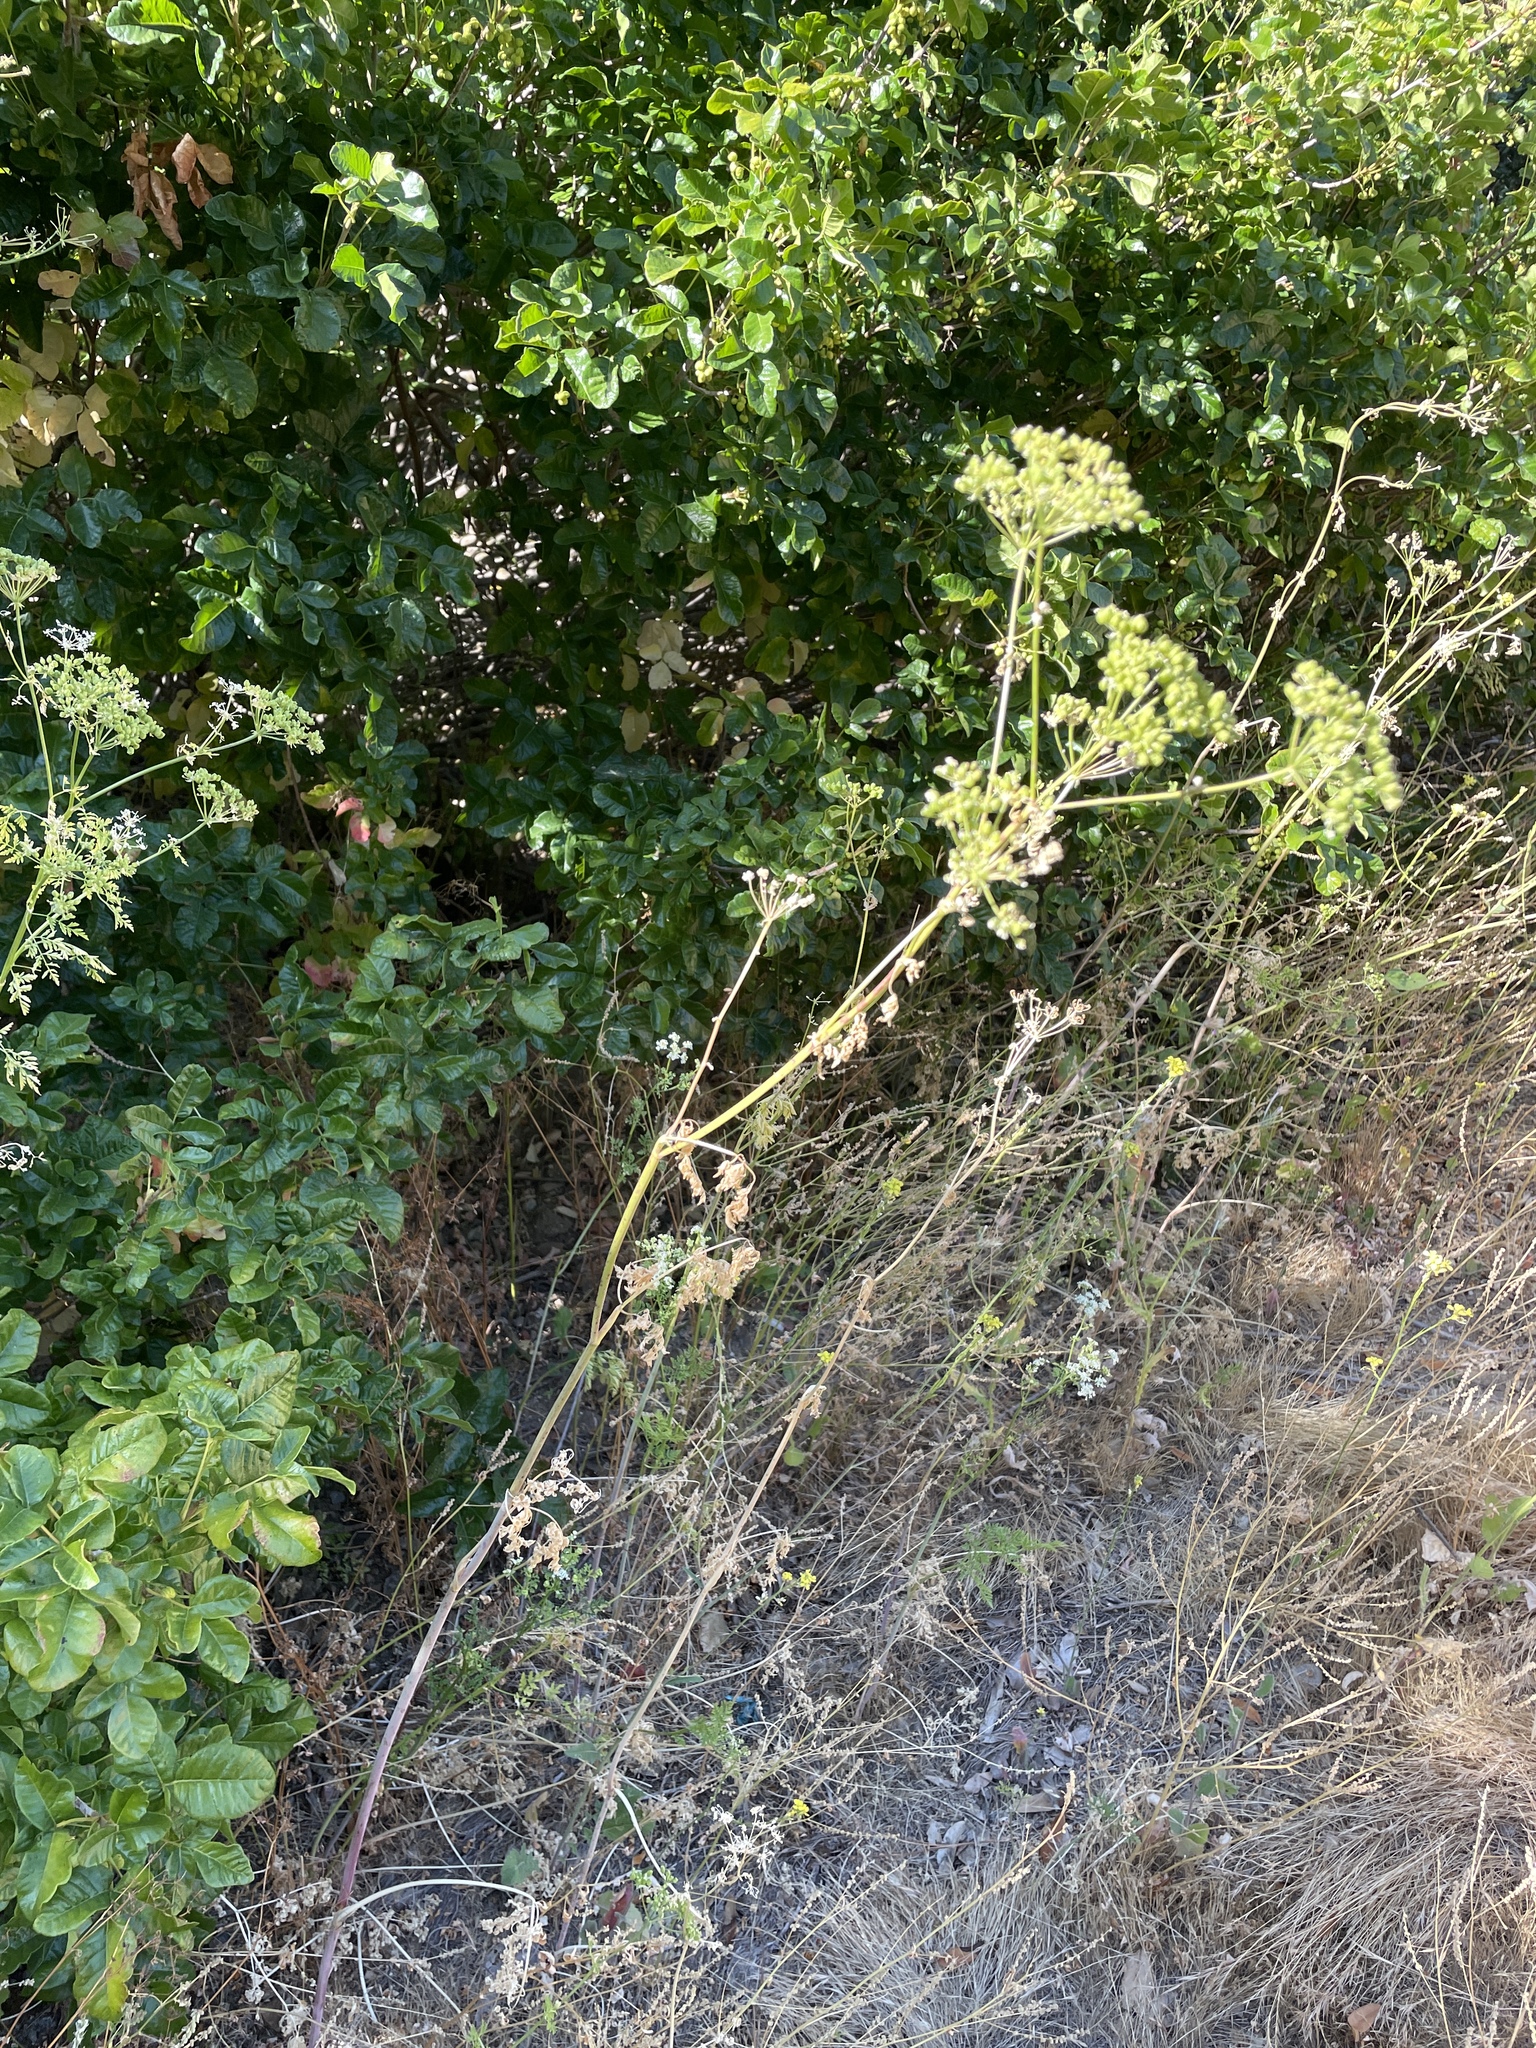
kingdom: Plantae
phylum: Tracheophyta
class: Magnoliopsida
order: Apiales
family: Apiaceae
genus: Conium
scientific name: Conium maculatum
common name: Hemlock
